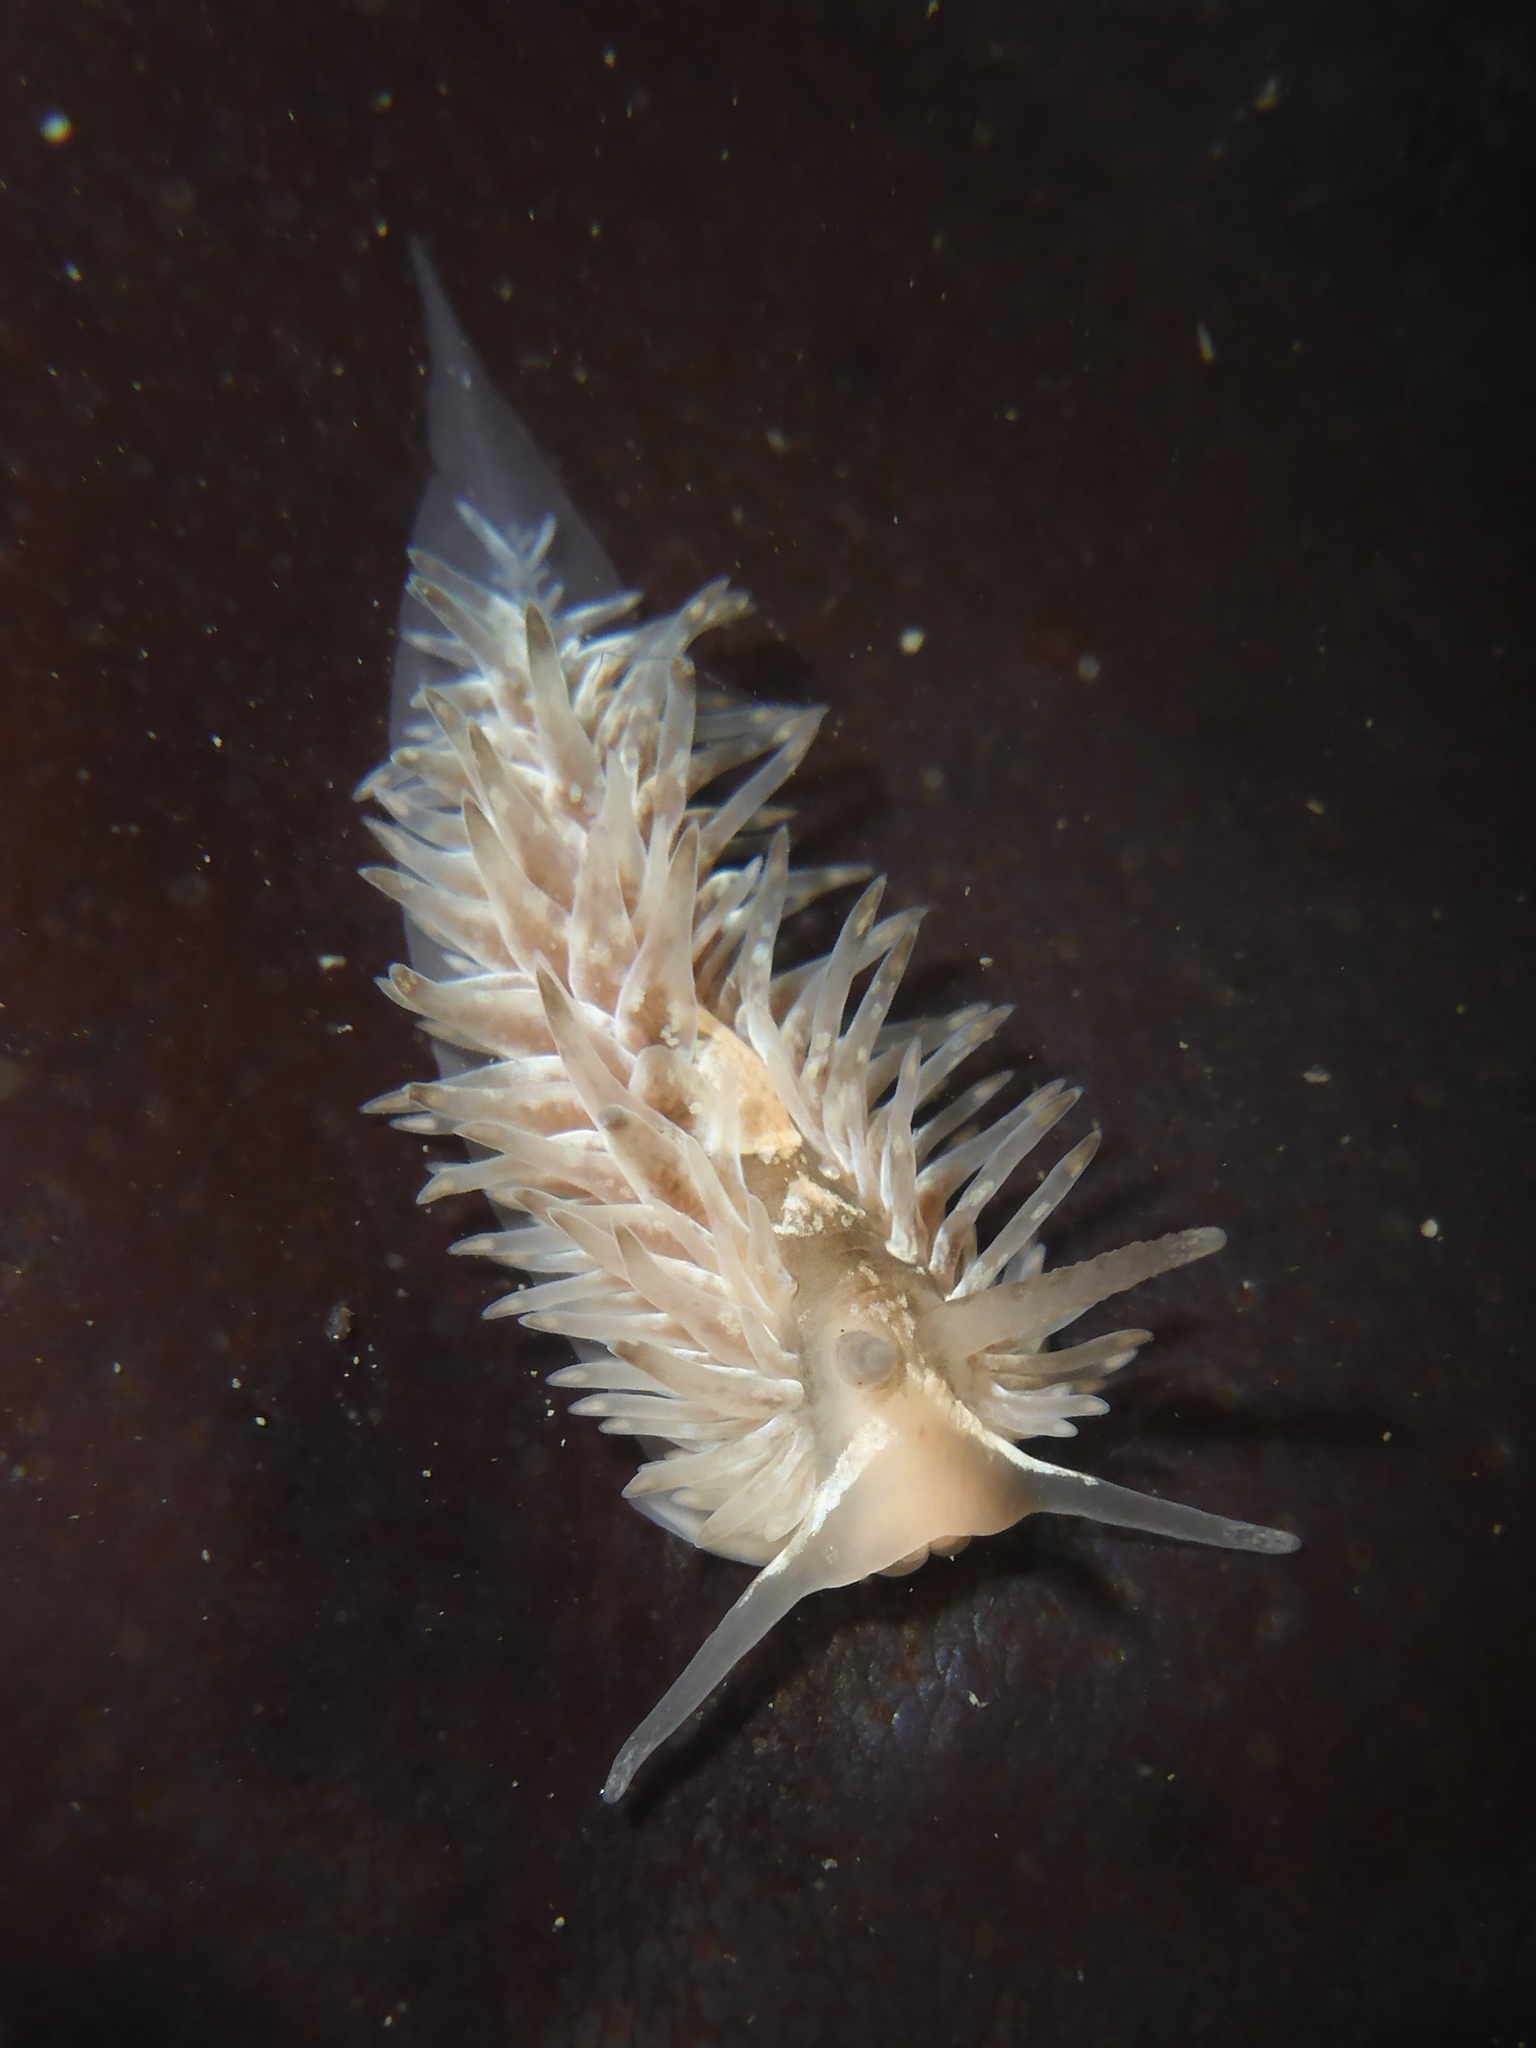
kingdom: Animalia
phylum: Mollusca
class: Gastropoda
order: Nudibranchia
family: Aeolidiidae
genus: Aeolidia
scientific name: Aeolidia loui
